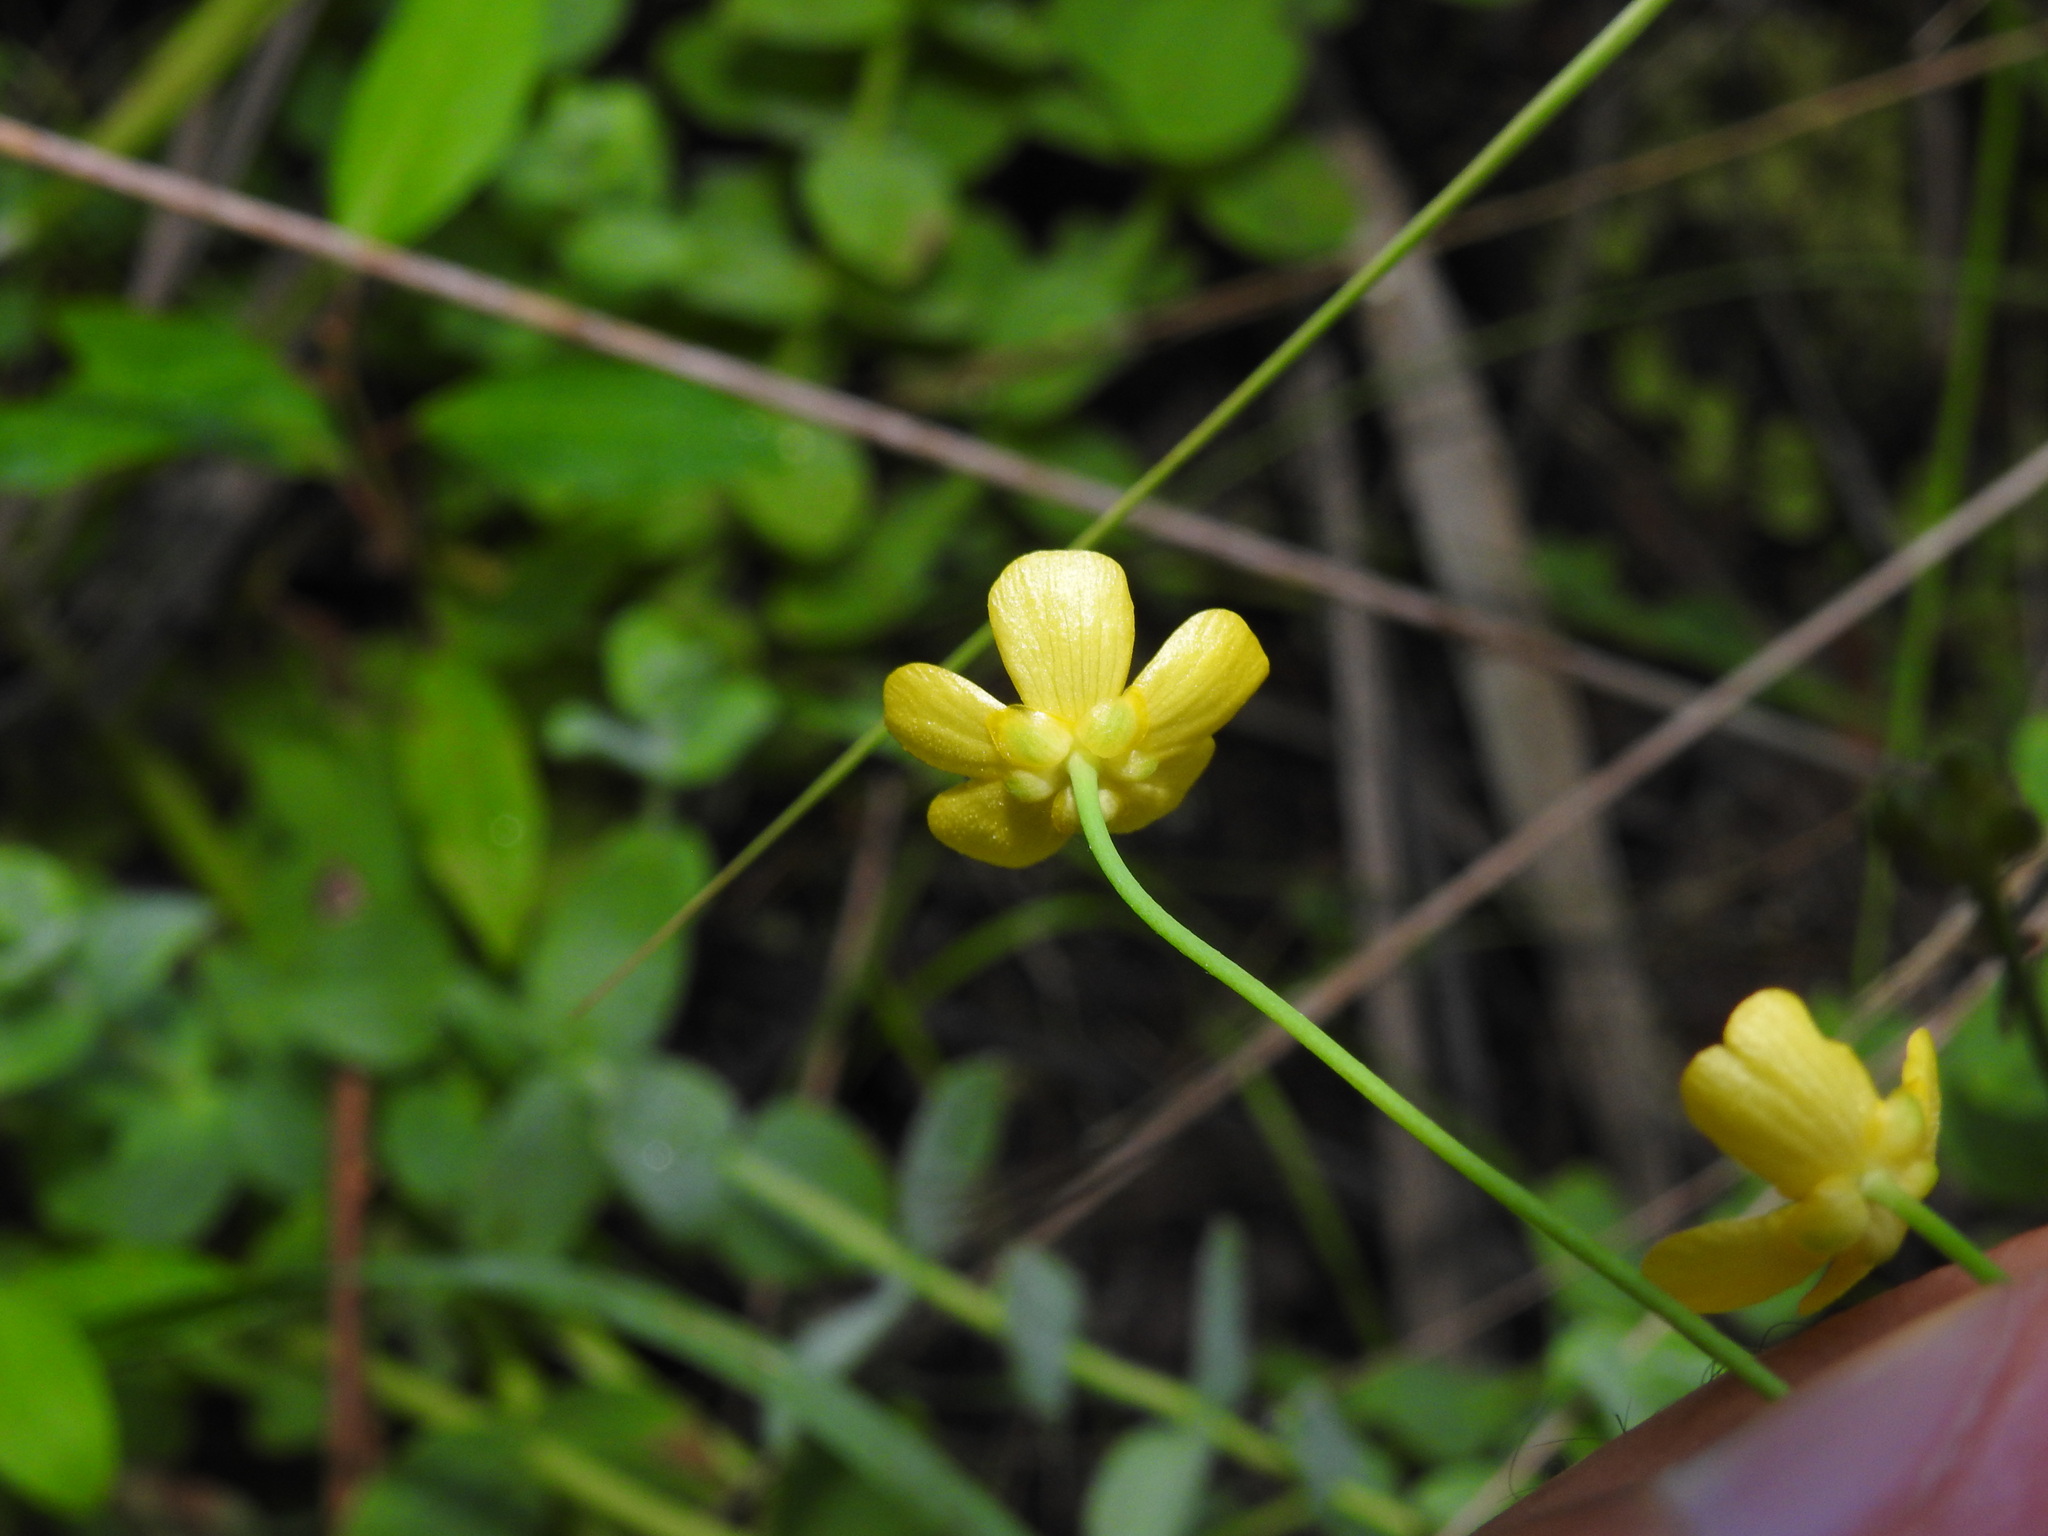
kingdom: Plantae
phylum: Tracheophyta
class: Magnoliopsida
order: Ranunculales
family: Ranunculaceae
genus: Ranunculus
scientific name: Ranunculus flammula
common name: Lesser spearwort
